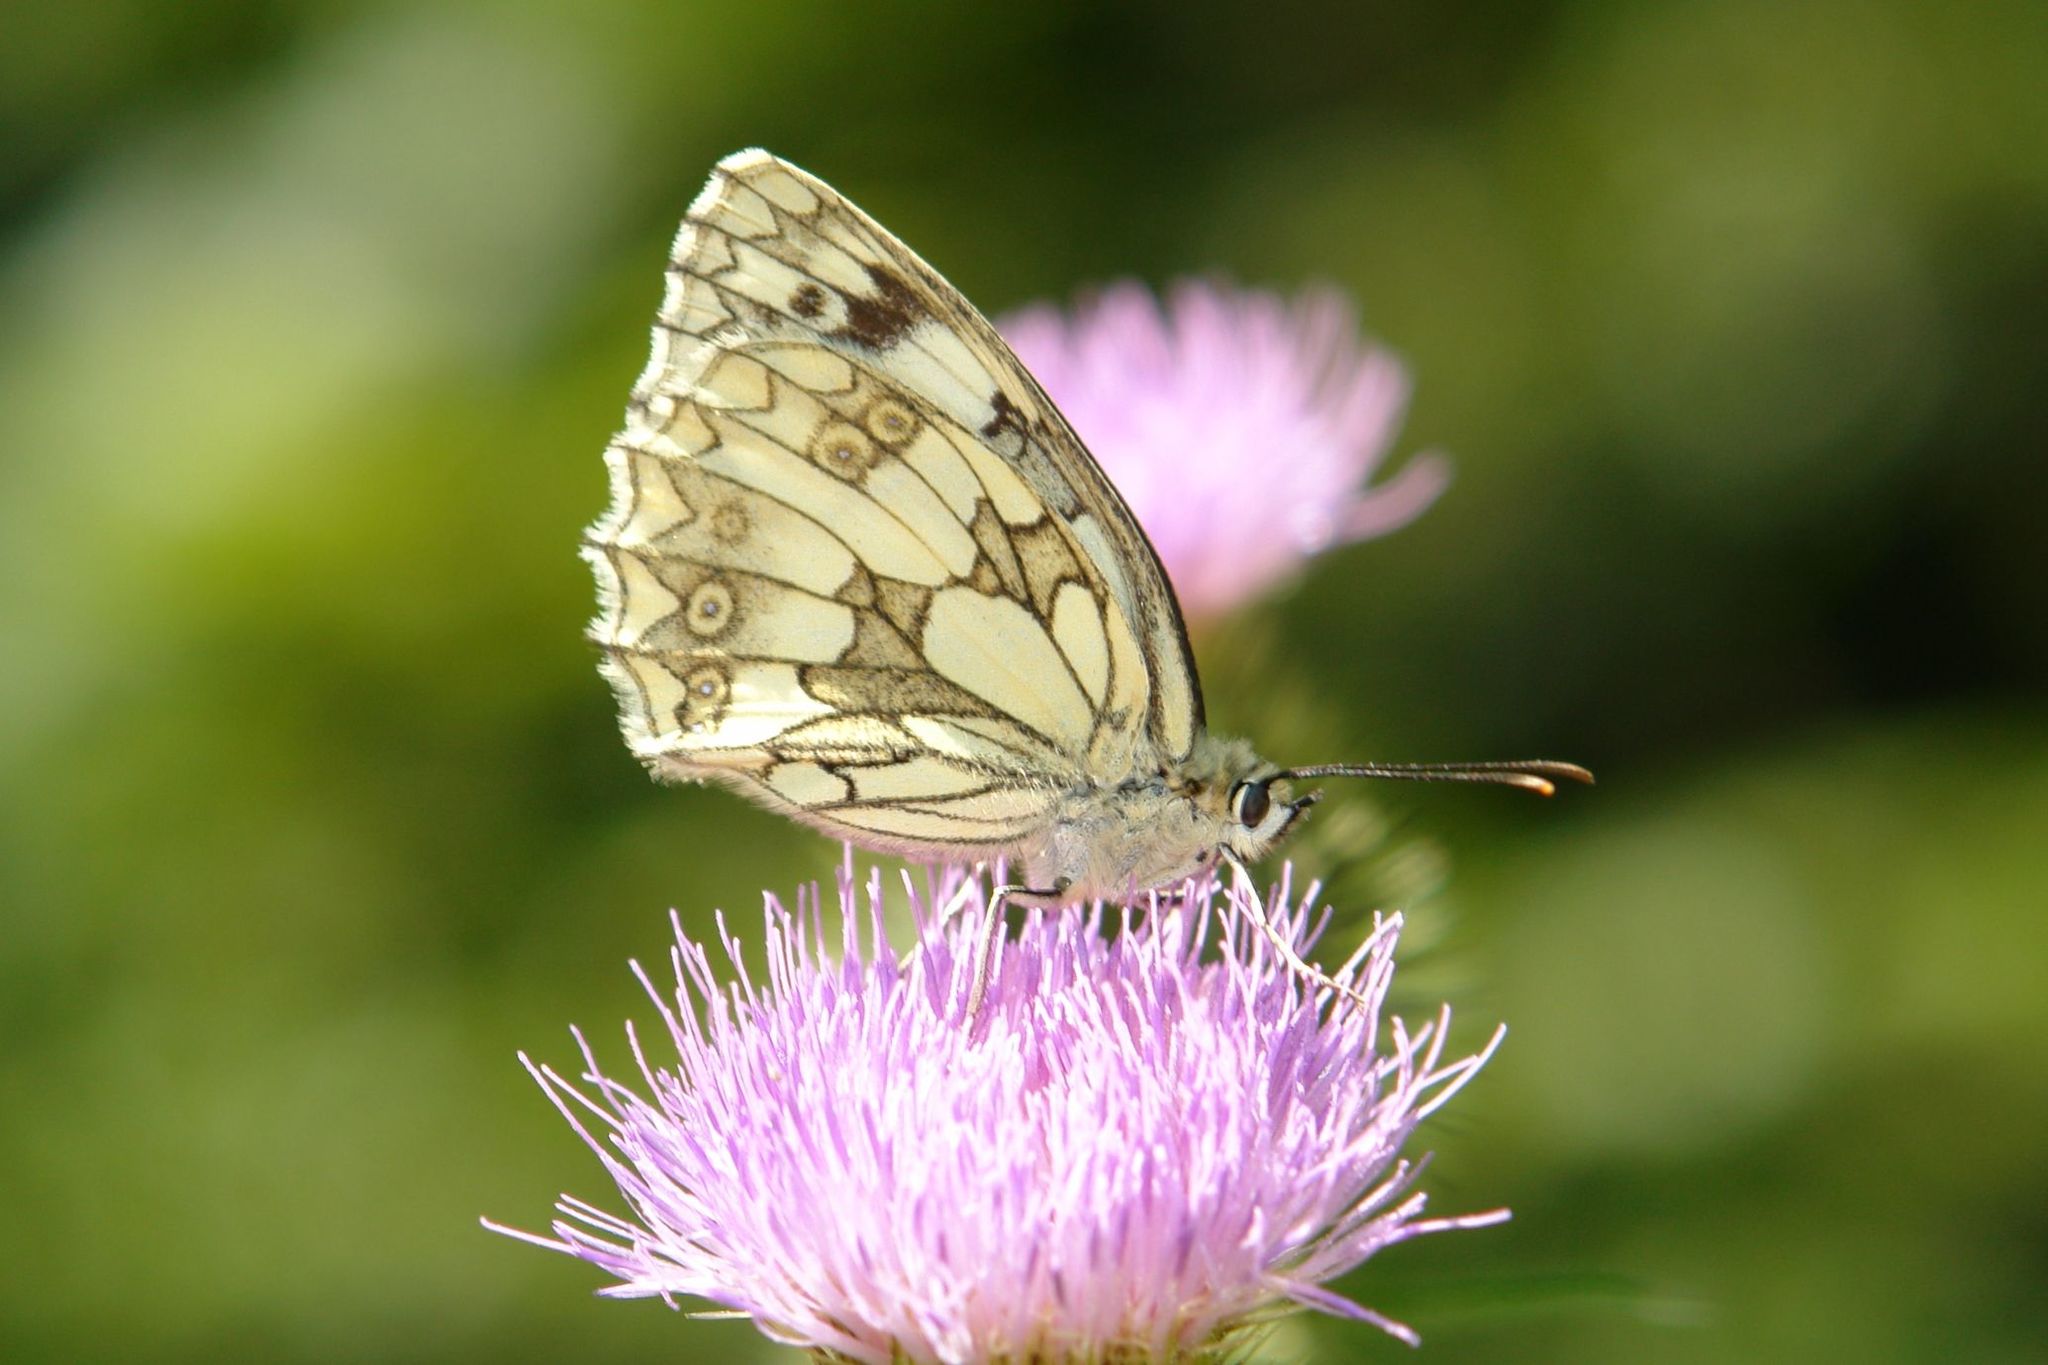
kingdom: Animalia
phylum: Arthropoda
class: Insecta
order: Lepidoptera
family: Nymphalidae
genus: Melanargia
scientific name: Melanargia galathea
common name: Marbled white
